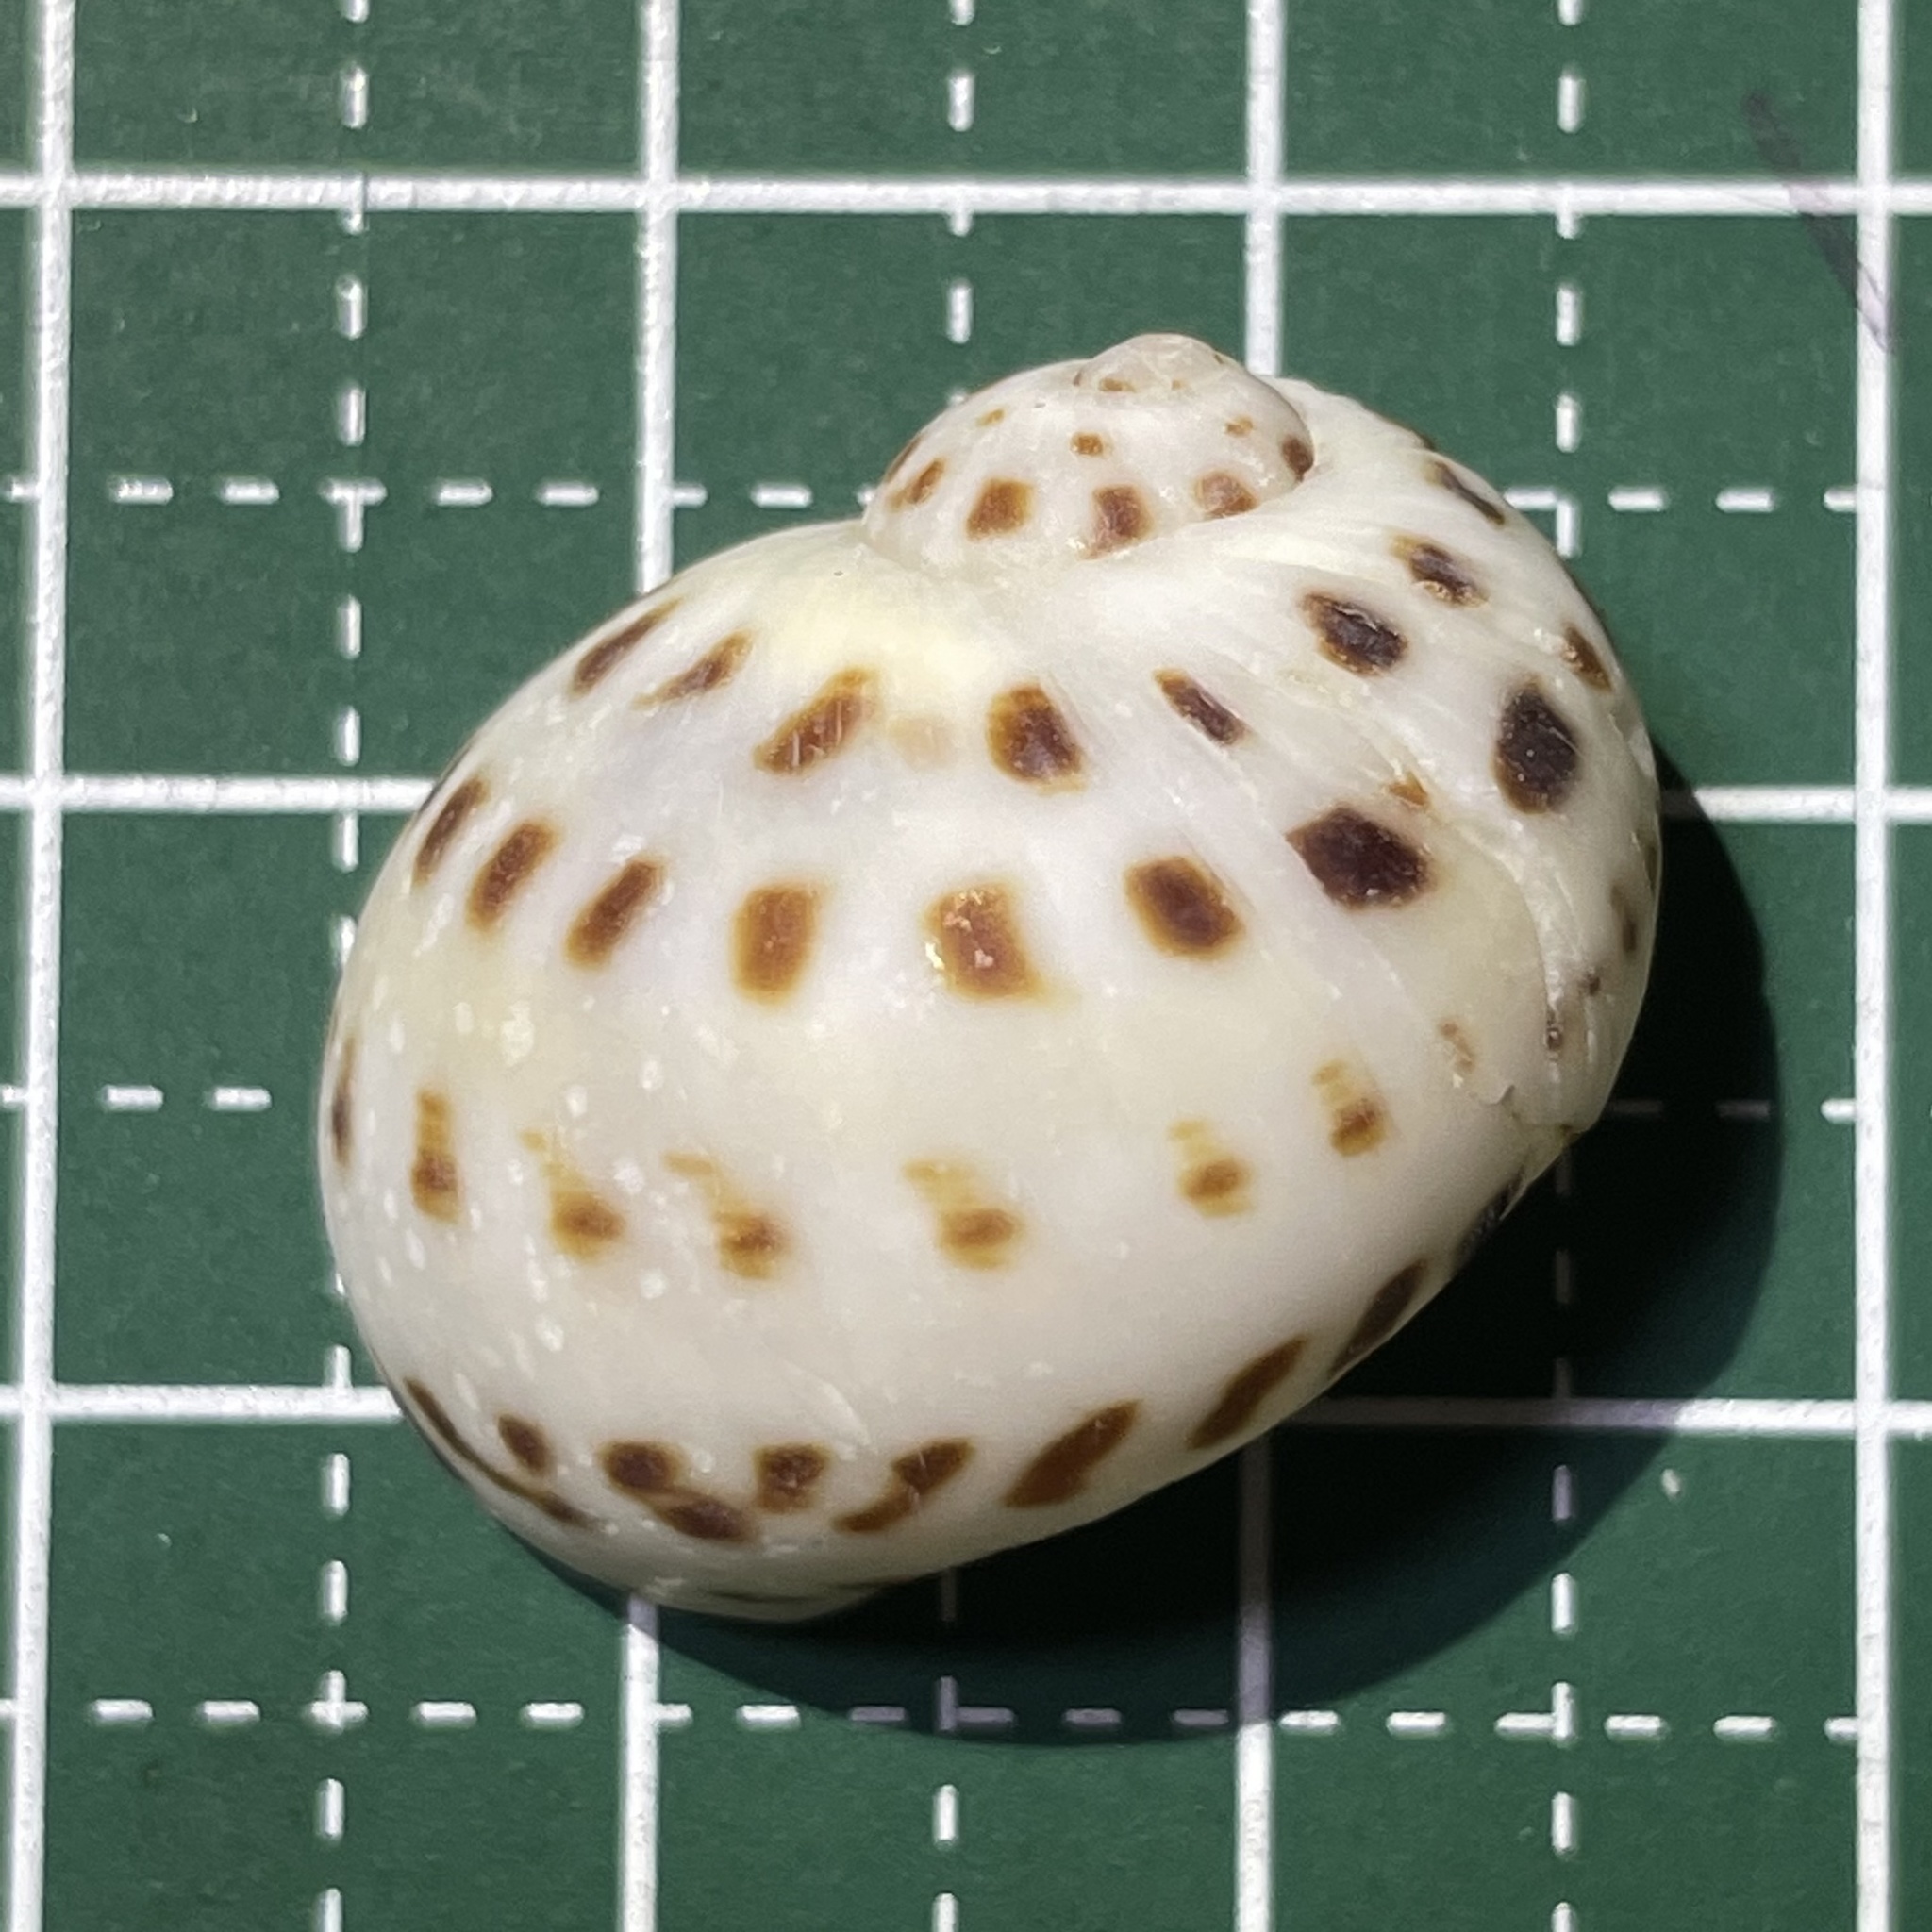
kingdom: Animalia
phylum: Mollusca
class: Gastropoda
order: Littorinimorpha
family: Naticidae
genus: Naticarius
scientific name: Naticarius onca
